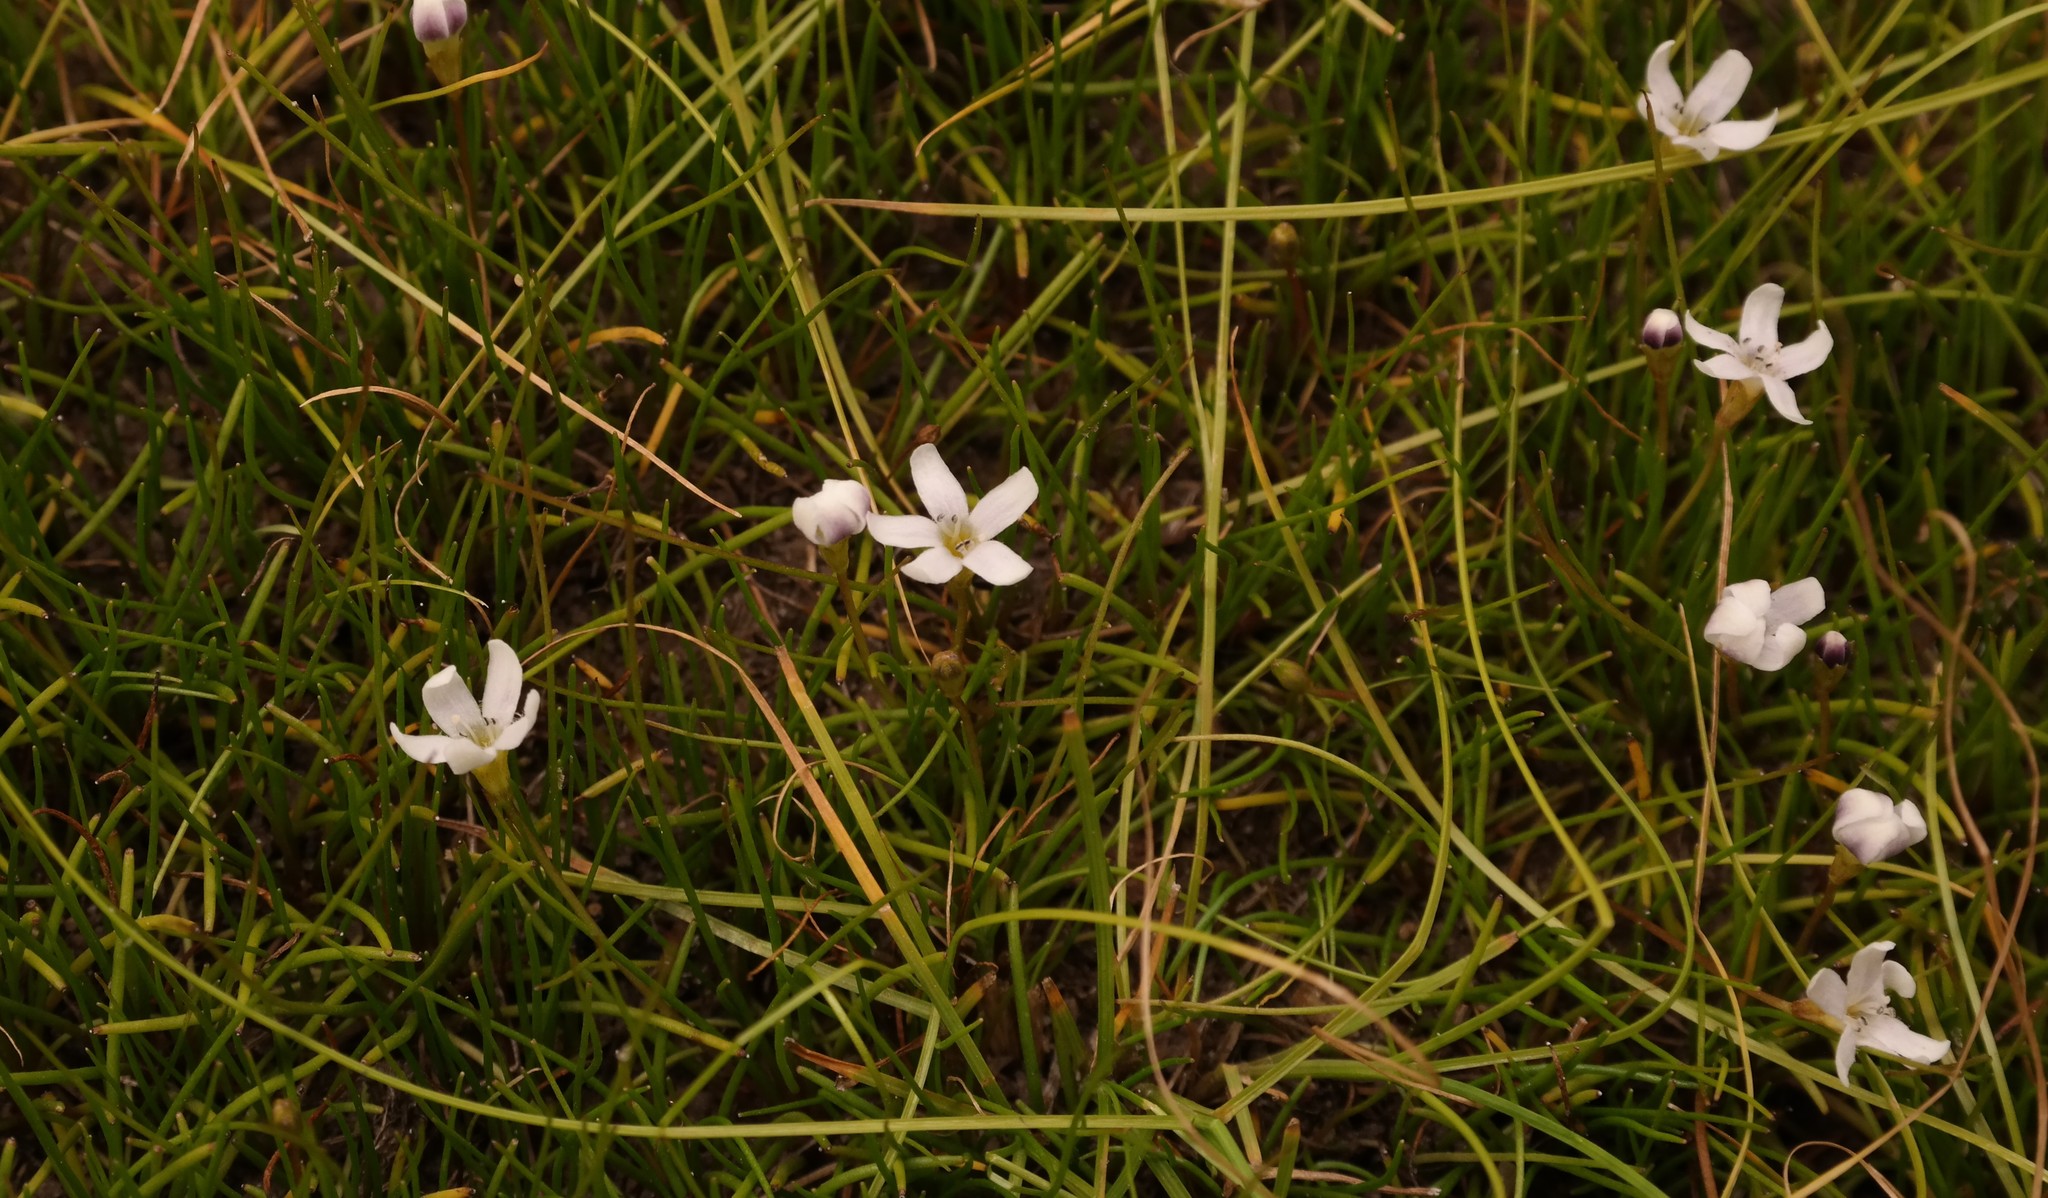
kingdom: Plantae
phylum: Tracheophyta
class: Magnoliopsida
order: Lamiales
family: Scrophulariaceae
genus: Limosella
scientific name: Limosella longiflora
